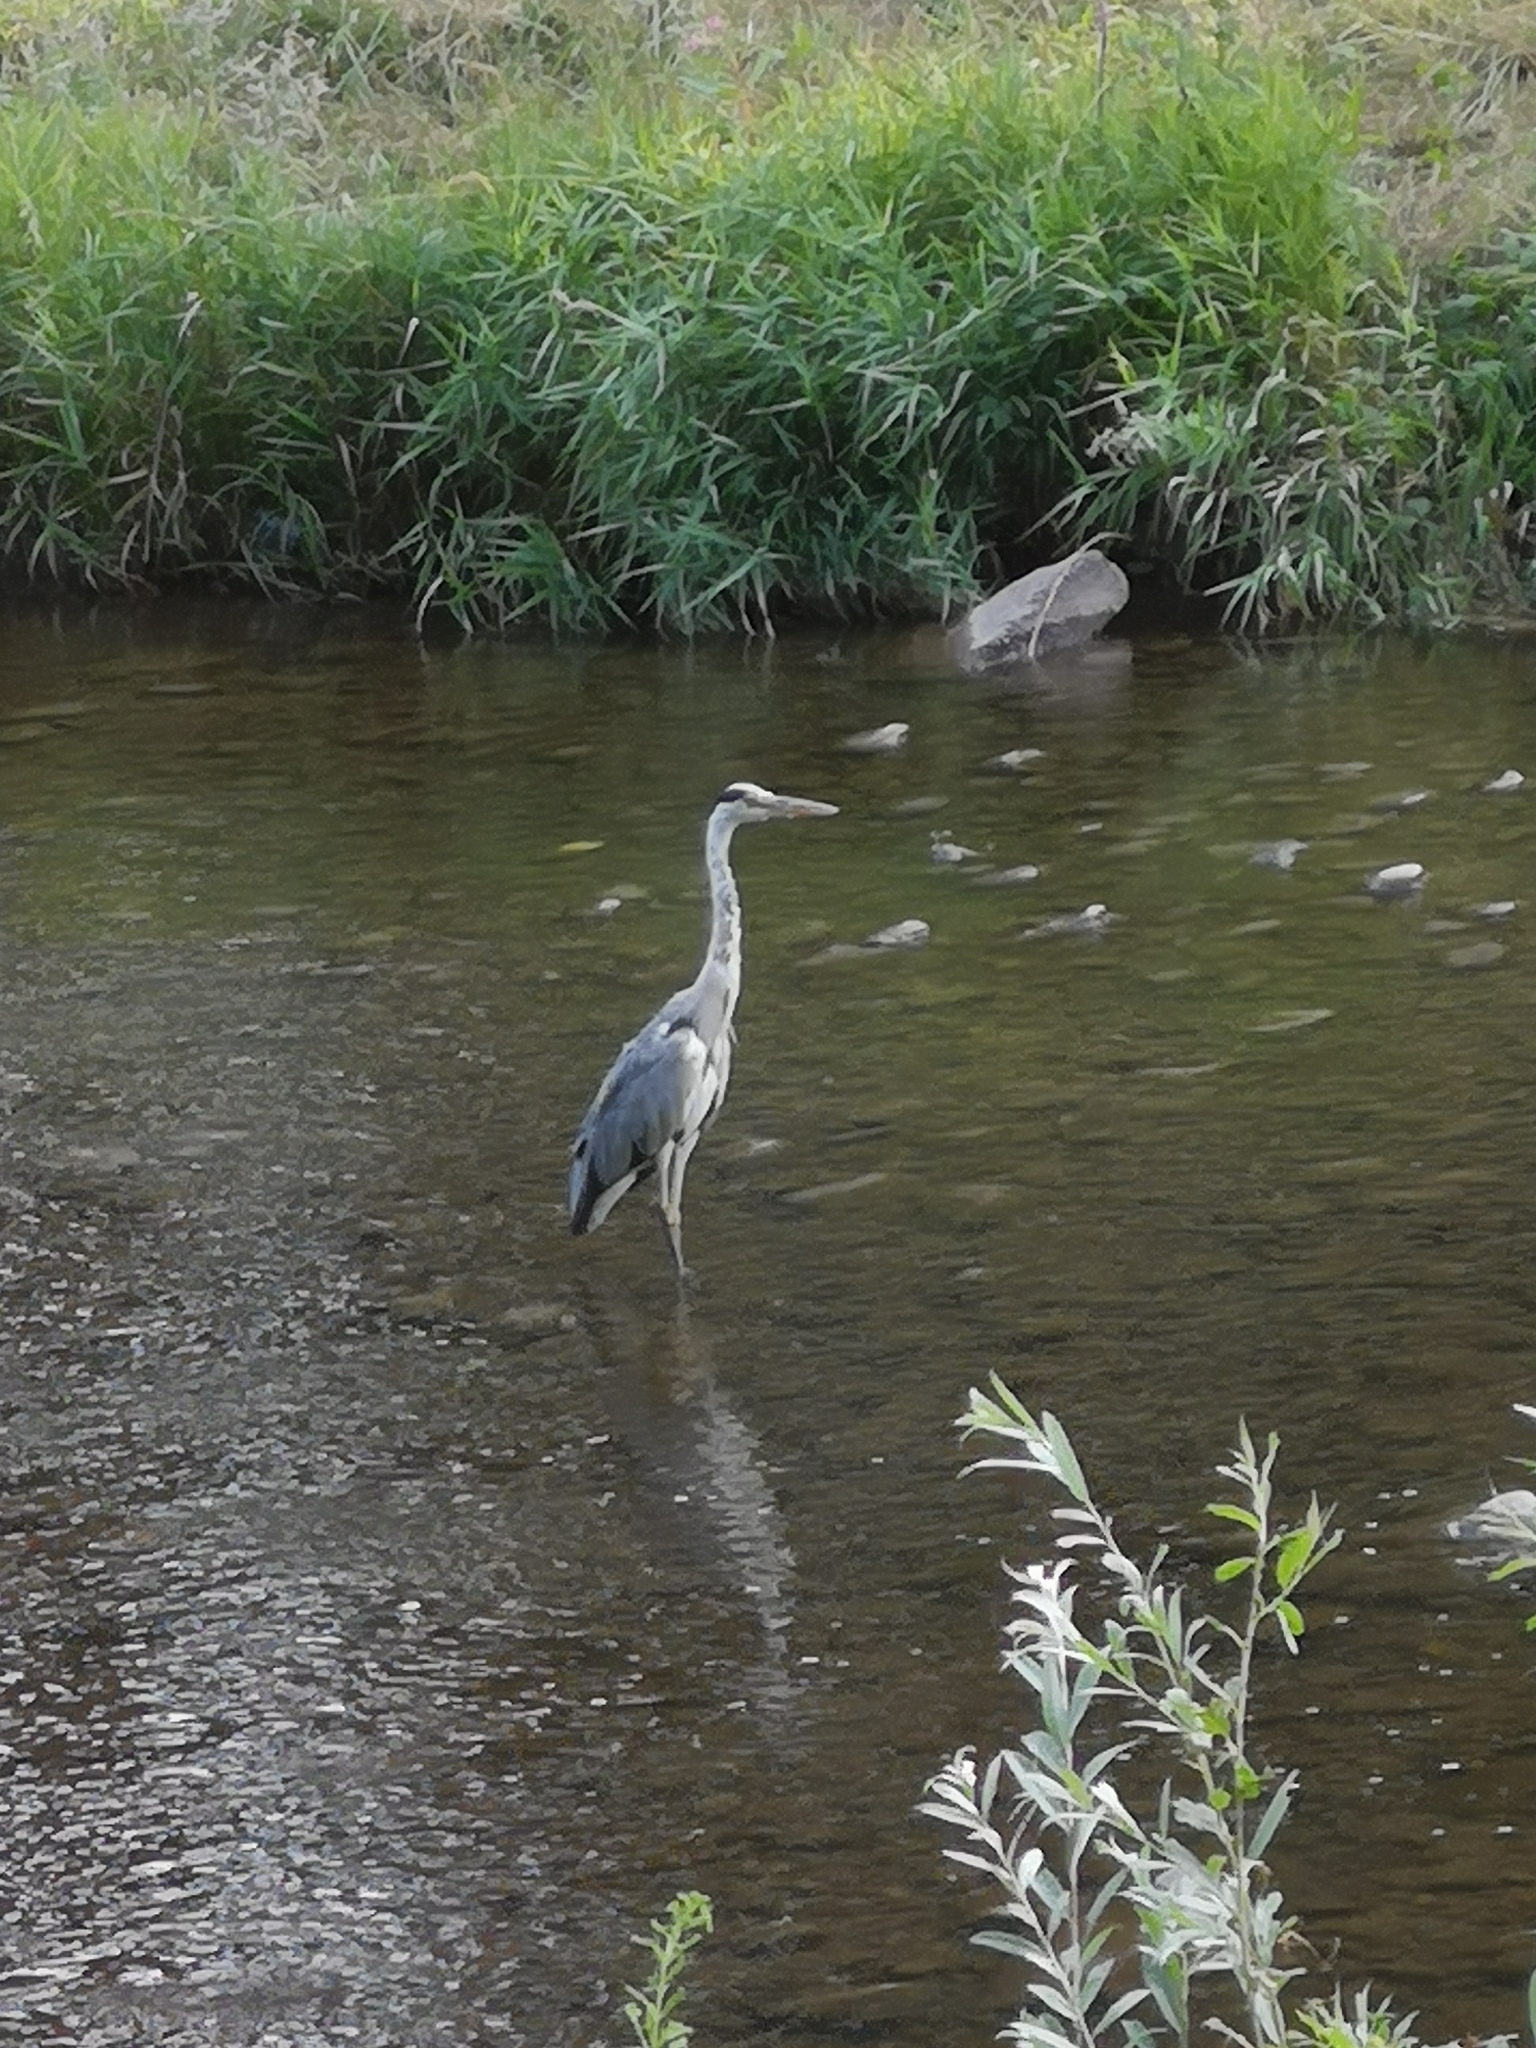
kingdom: Animalia
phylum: Chordata
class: Aves
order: Pelecaniformes
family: Ardeidae
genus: Ardea
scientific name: Ardea cinerea
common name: Grey heron
